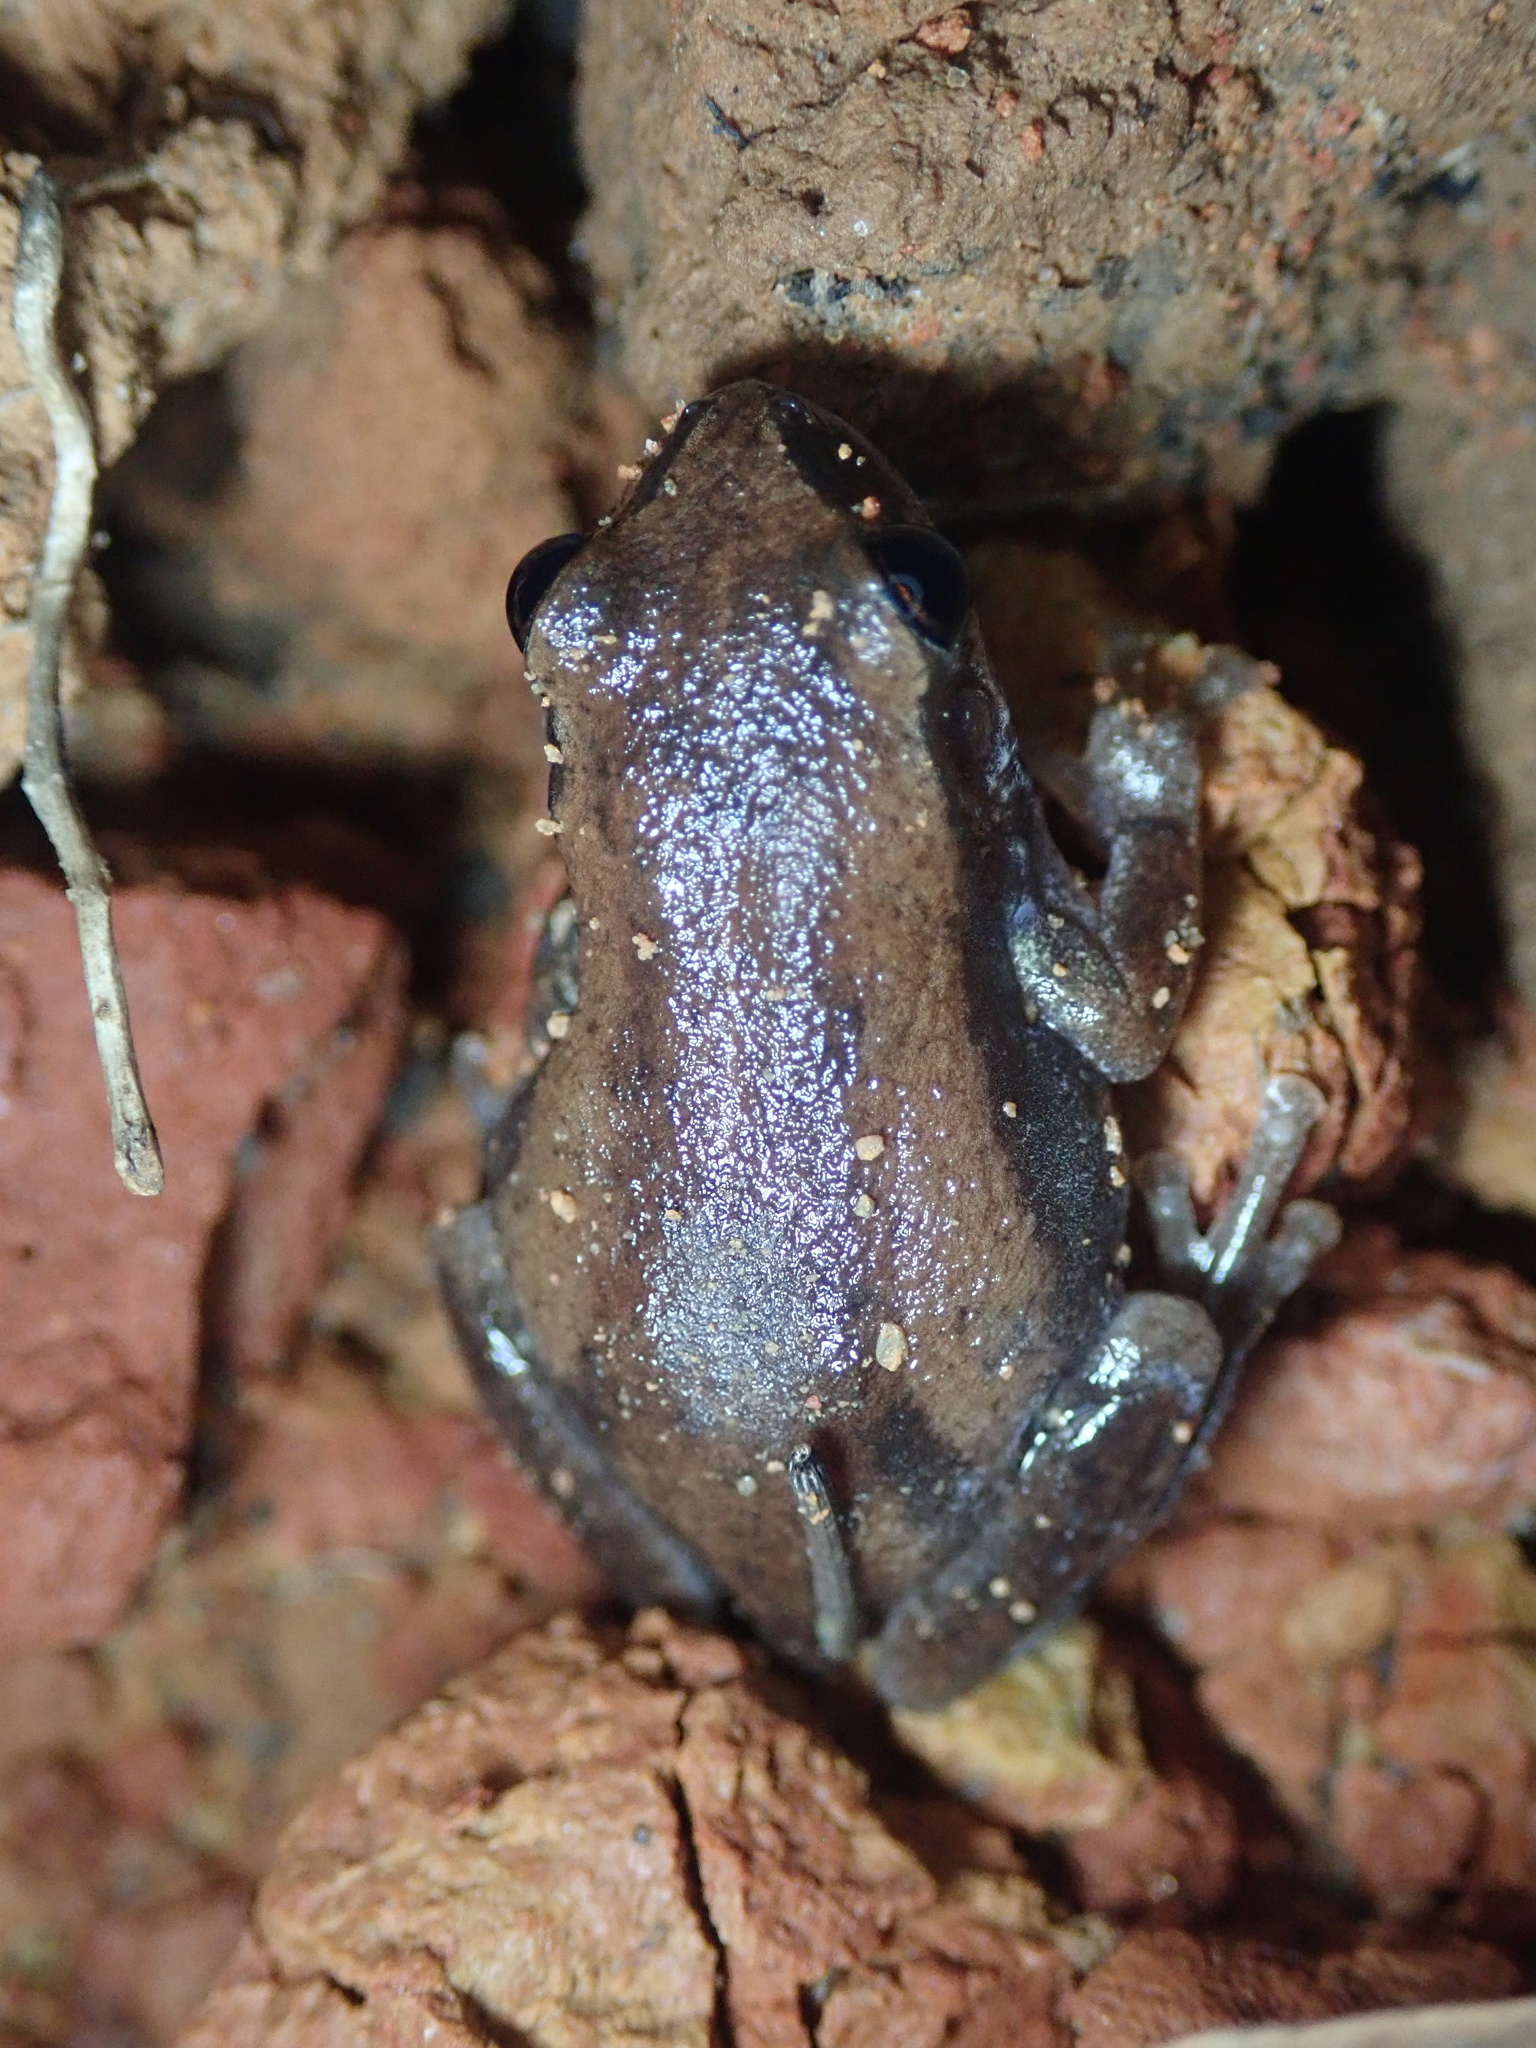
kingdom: Animalia
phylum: Chordata
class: Amphibia
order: Anura
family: Pelodryadidae
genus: Litoria
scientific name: Litoria rubella
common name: Desert tree frog
